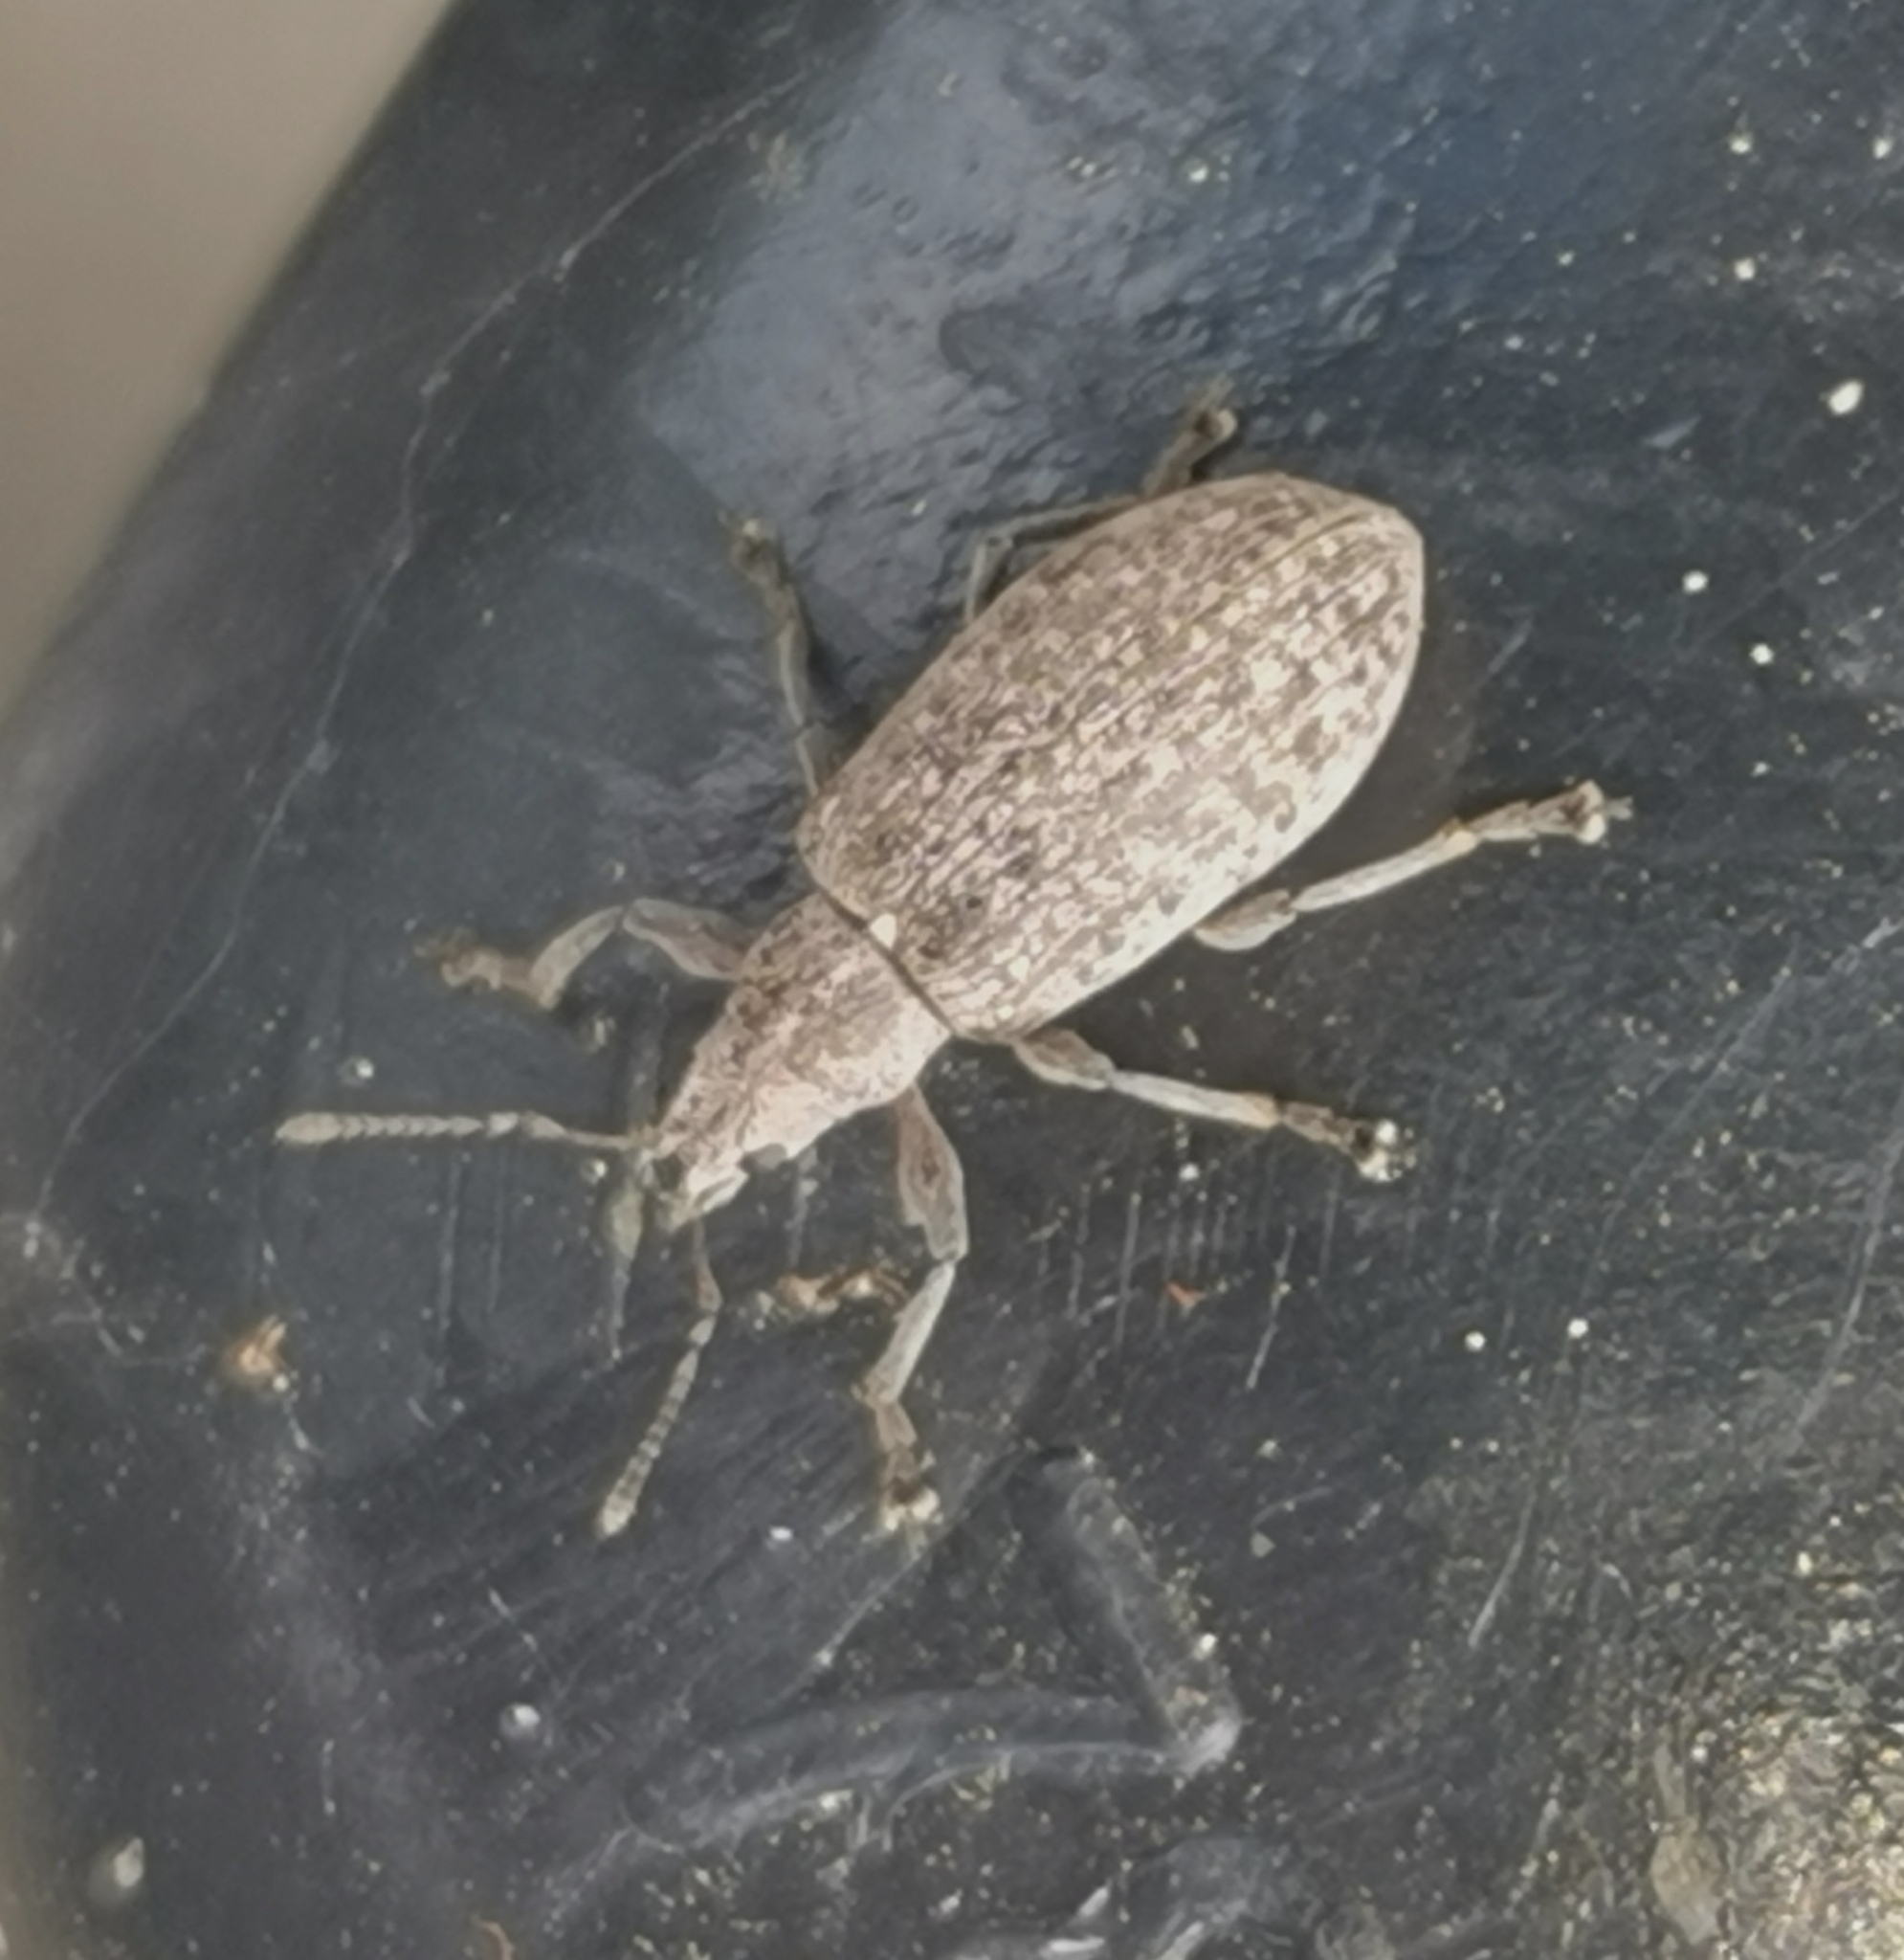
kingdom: Animalia
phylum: Arthropoda
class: Insecta
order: Coleoptera
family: Curculionidae
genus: Polydrusus
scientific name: Polydrusus pilosus
